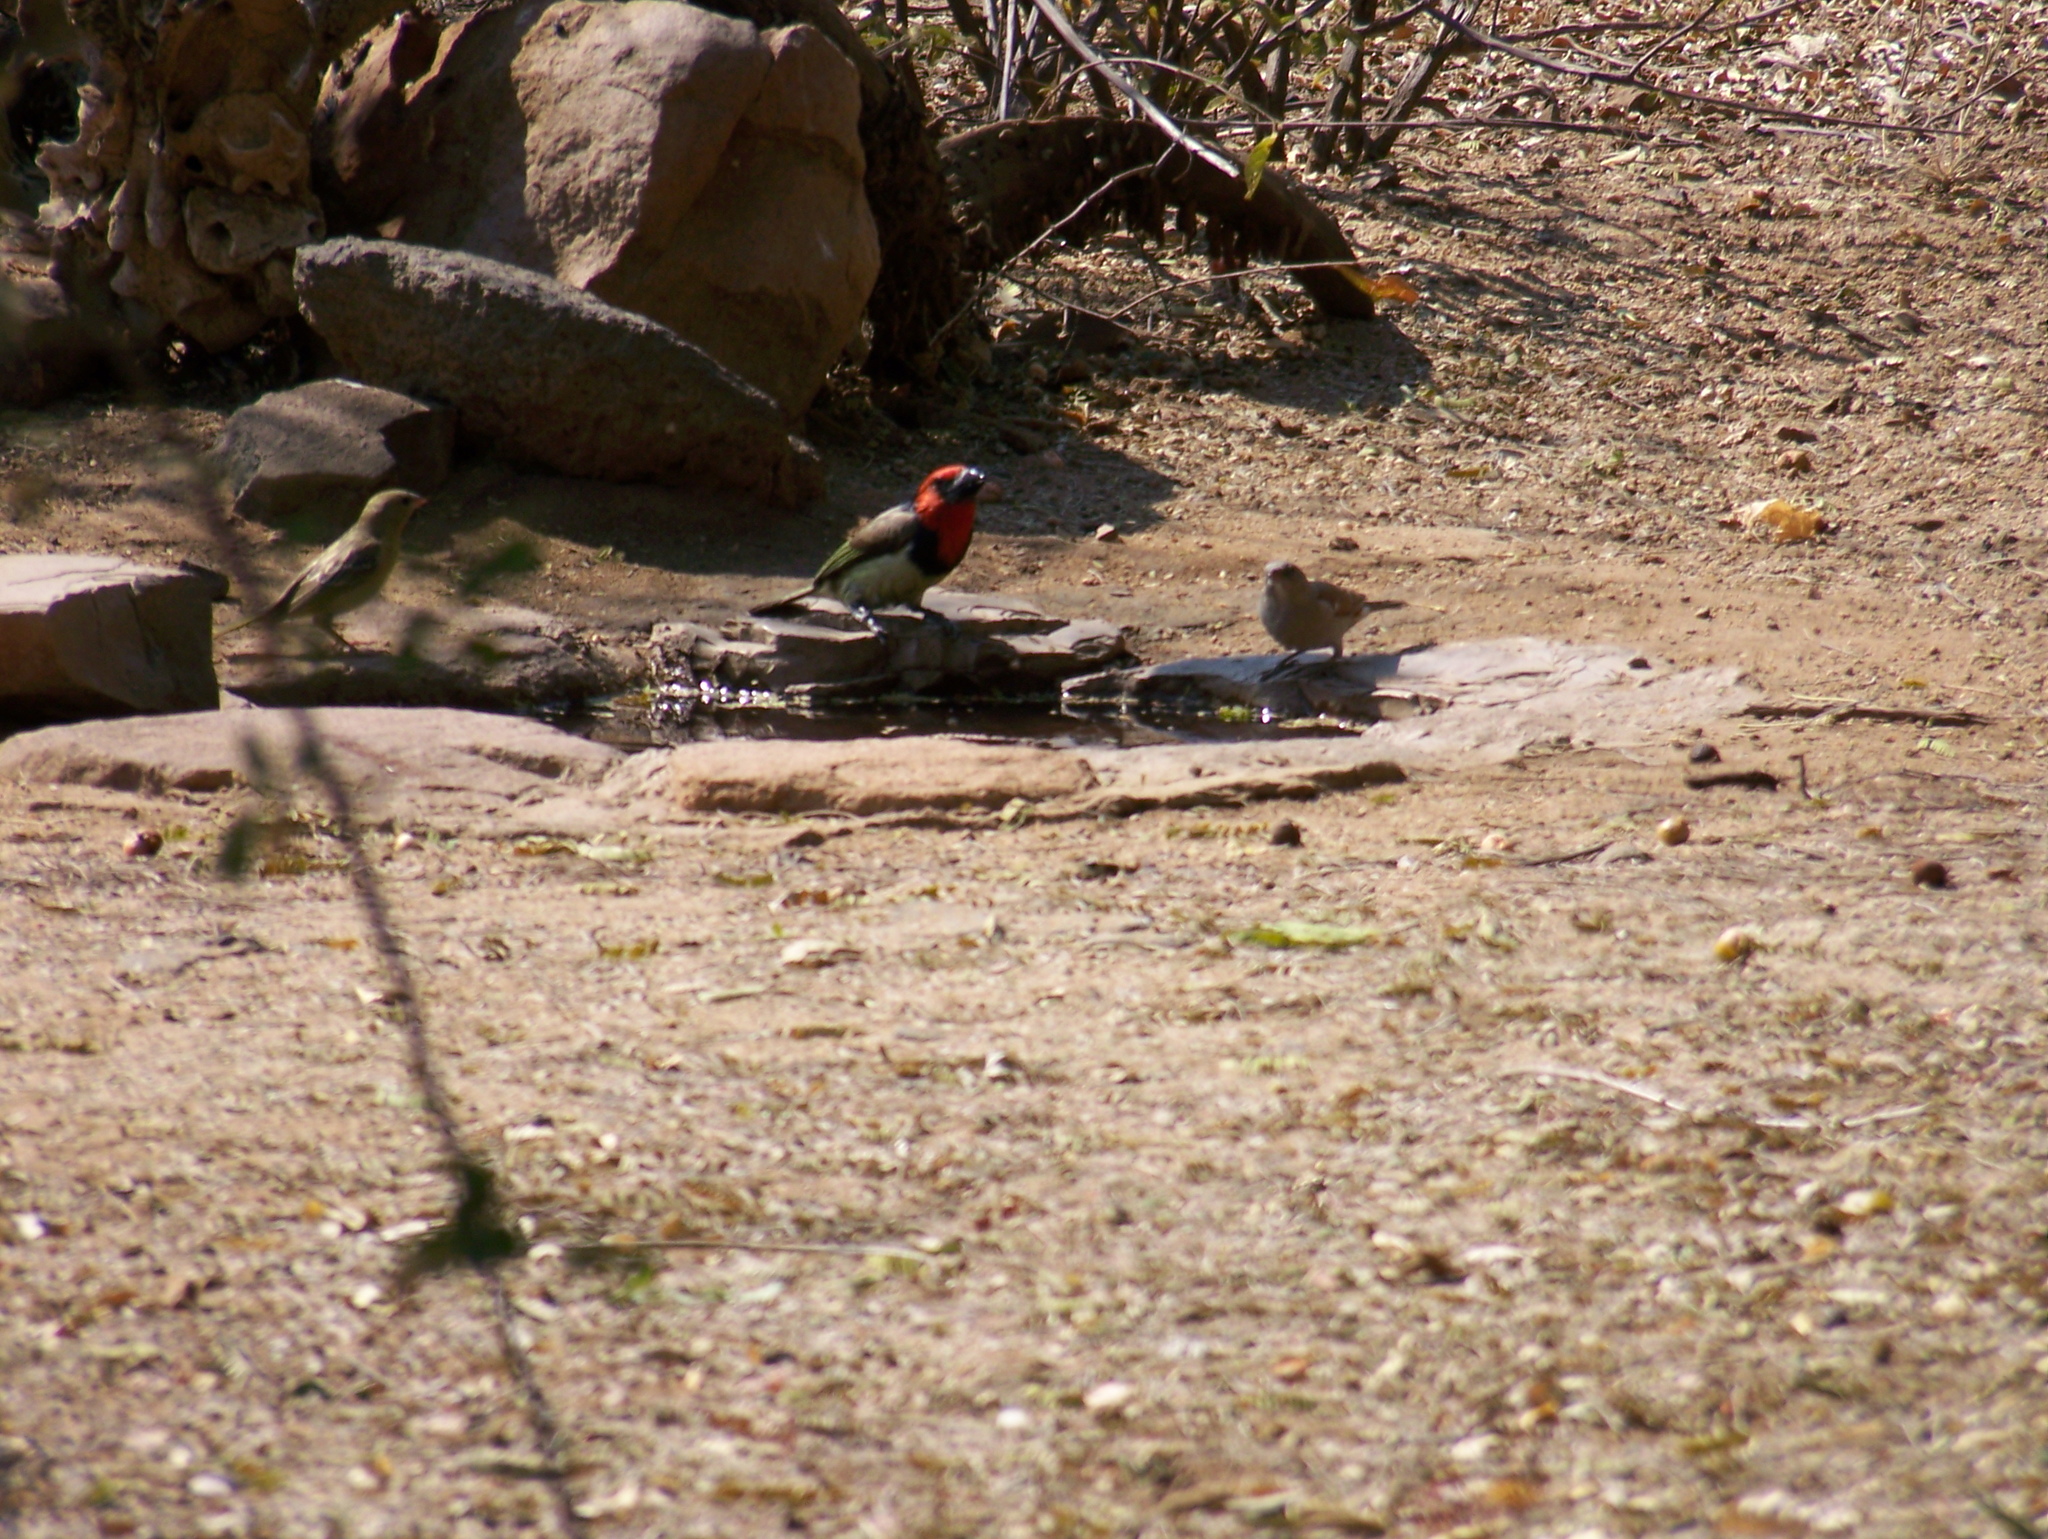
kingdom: Animalia
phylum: Chordata
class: Aves
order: Piciformes
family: Lybiidae
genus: Lybius
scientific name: Lybius torquatus
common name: Black-collared barbet
